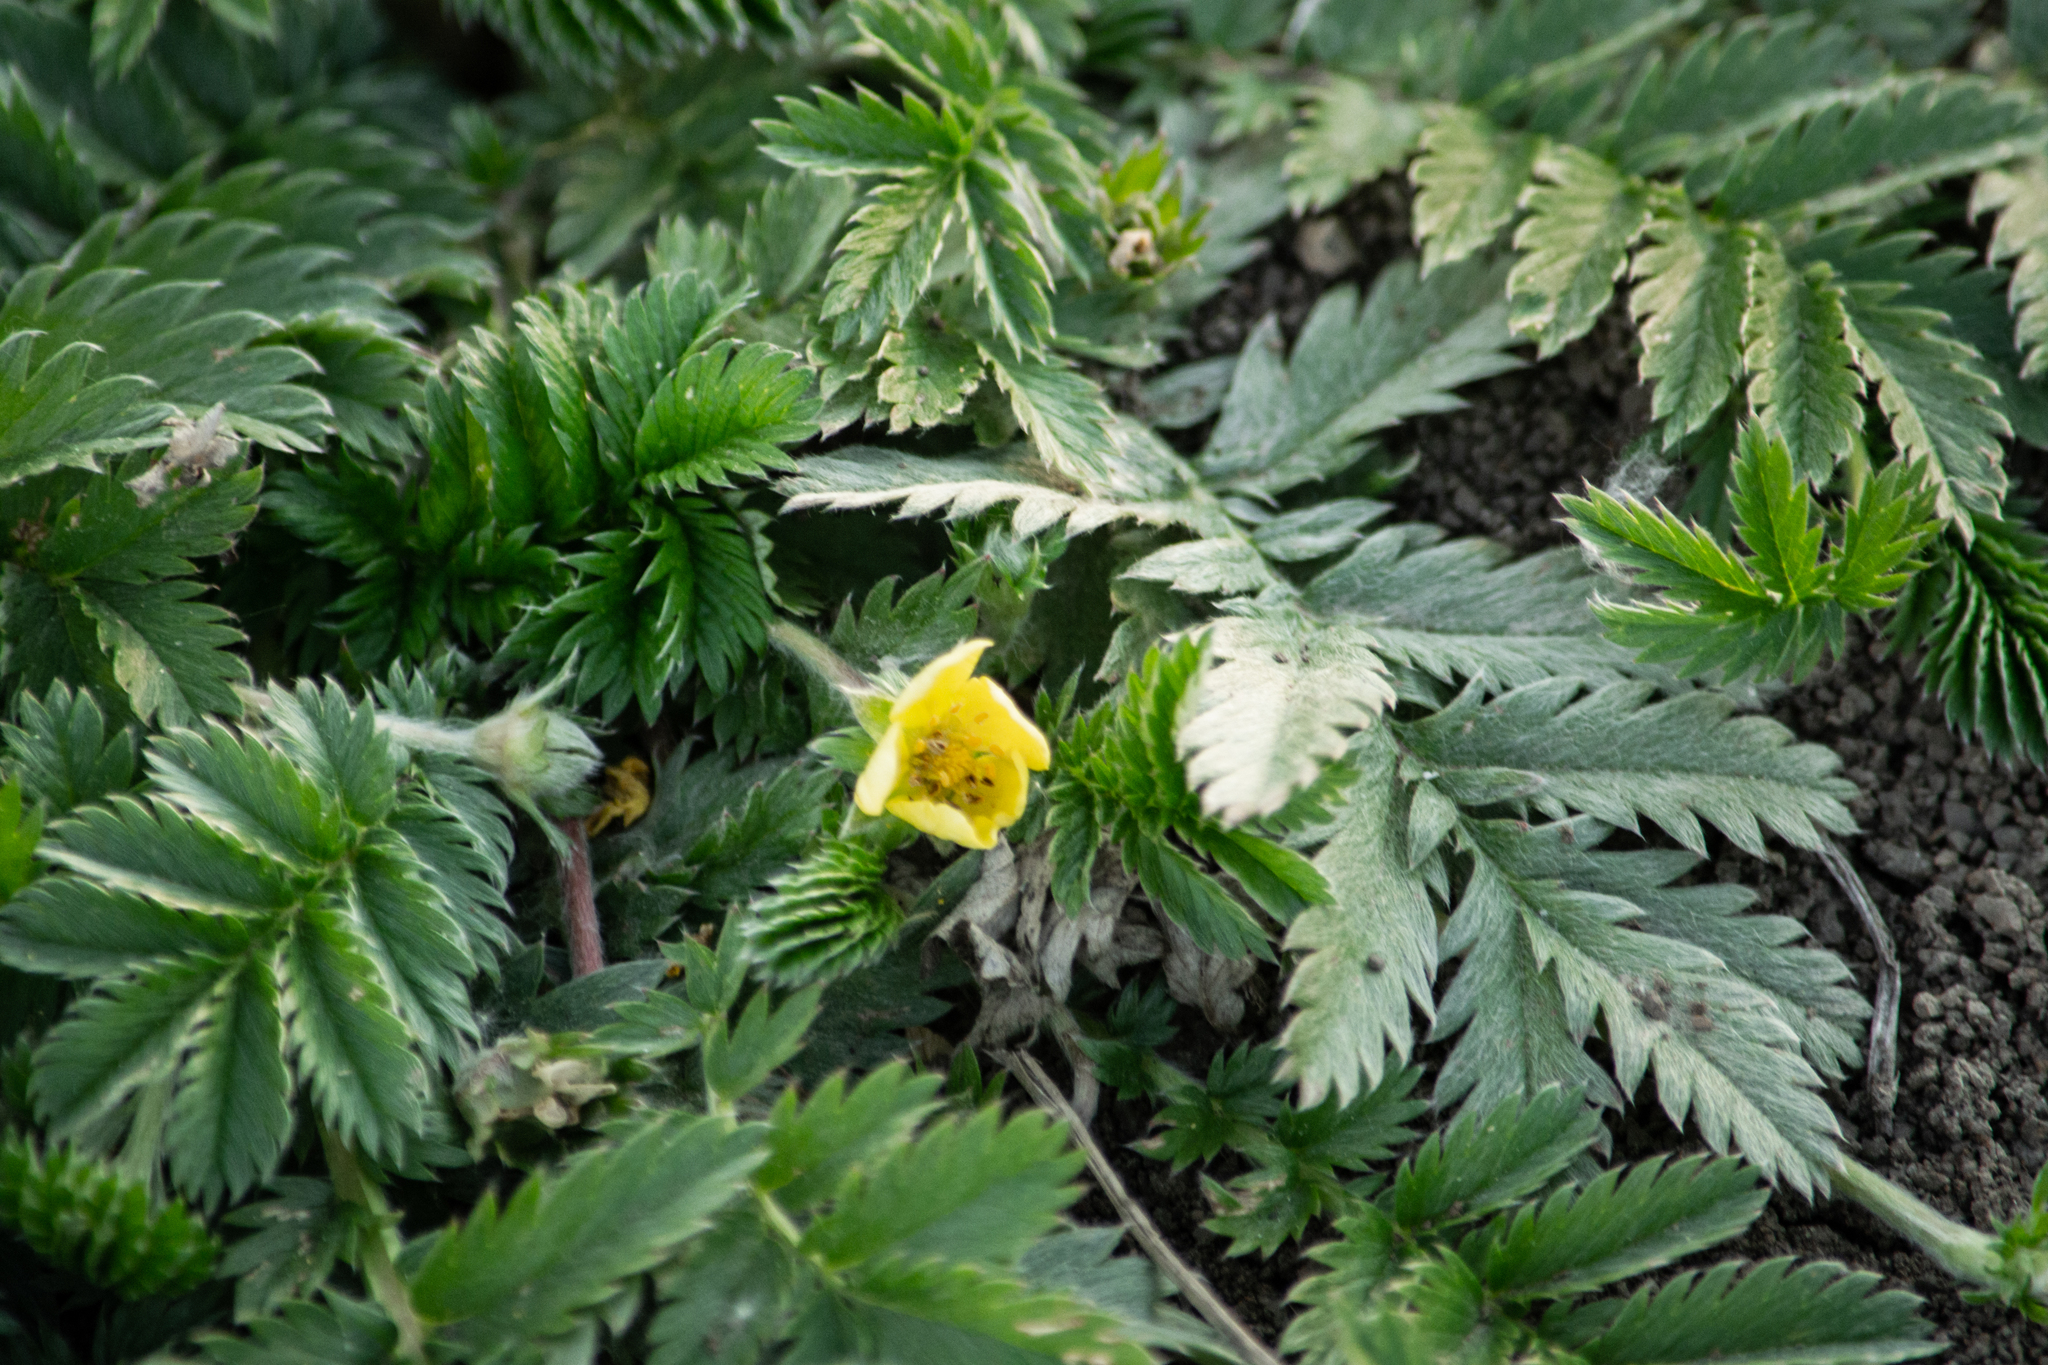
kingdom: Plantae
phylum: Tracheophyta
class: Magnoliopsida
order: Rosales
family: Rosaceae
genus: Argentina
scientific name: Argentina anserina
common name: Common silverweed
